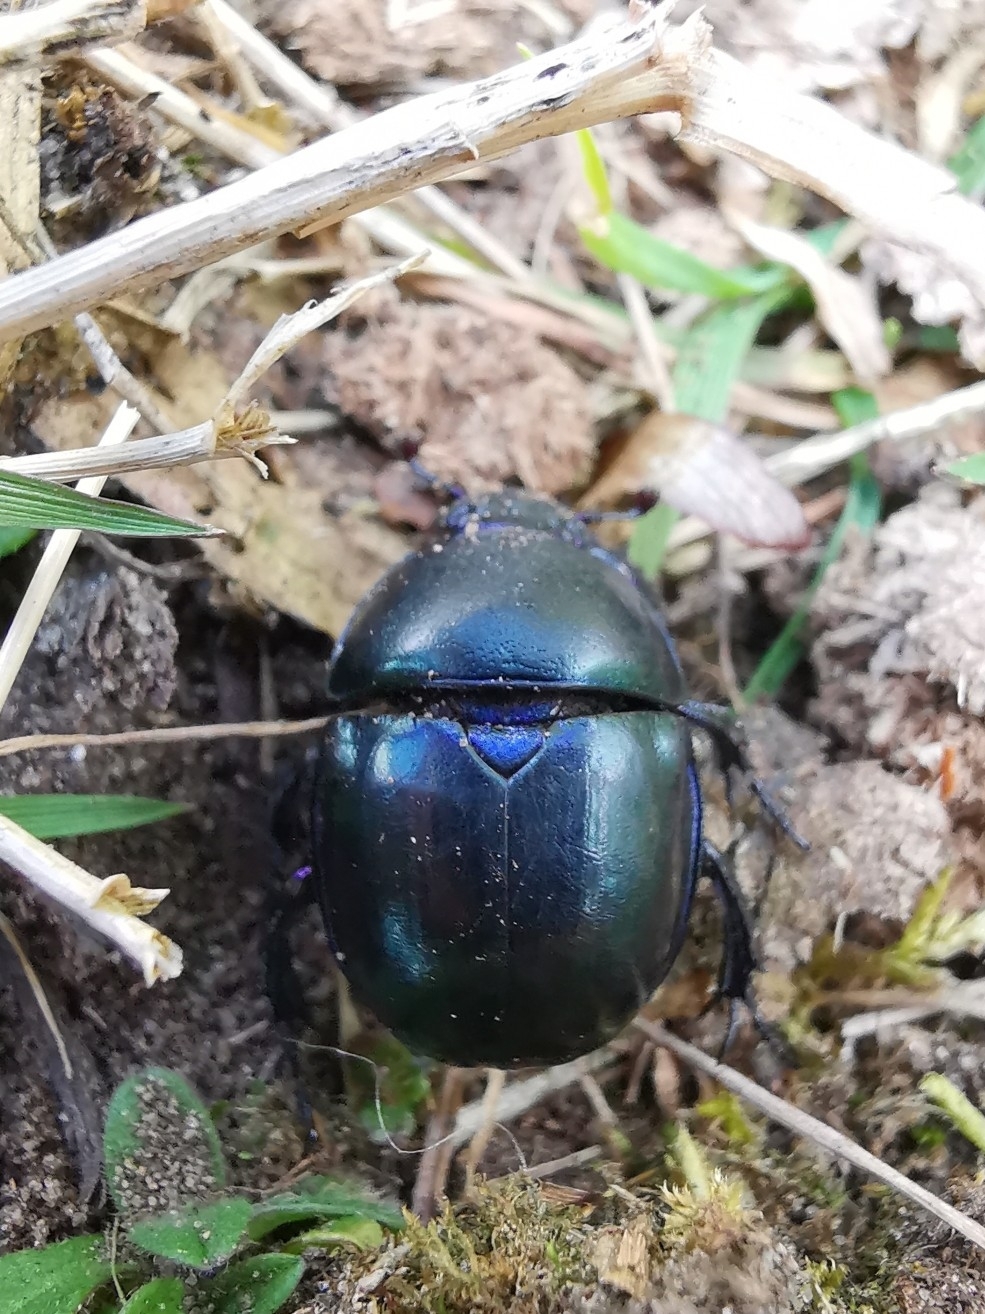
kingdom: Animalia
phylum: Arthropoda
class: Insecta
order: Coleoptera
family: Geotrupidae
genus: Trypocopris
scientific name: Trypocopris vernalis
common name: Spring dumbledor
